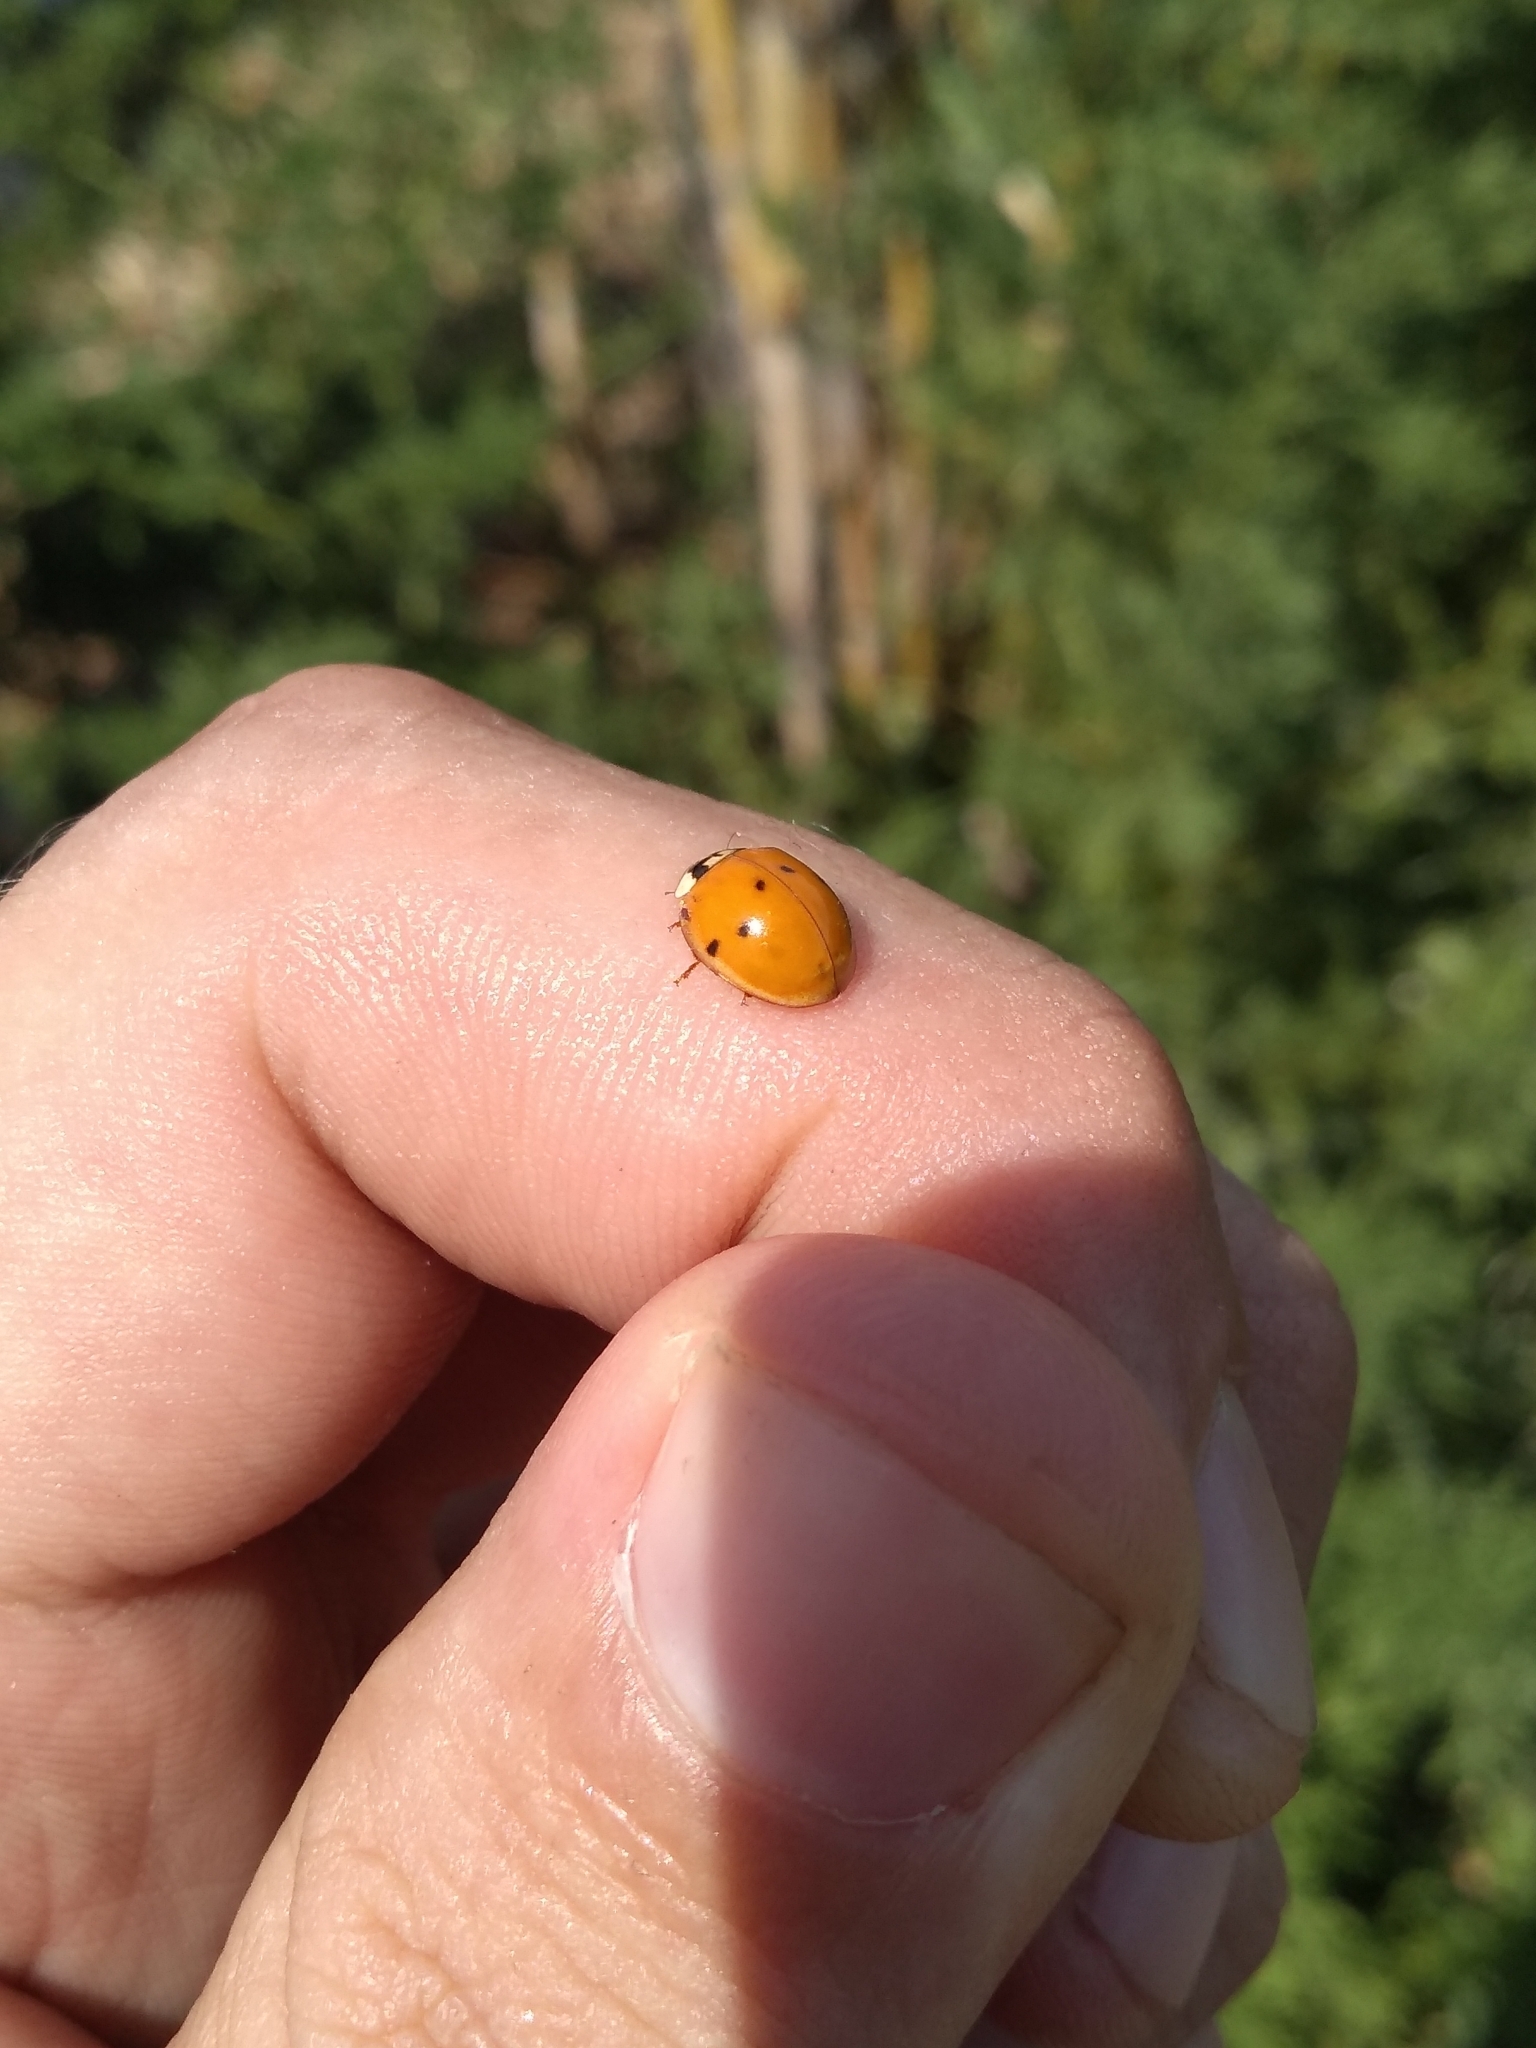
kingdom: Animalia
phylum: Arthropoda
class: Insecta
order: Coleoptera
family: Coccinellidae
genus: Harmonia
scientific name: Harmonia axyridis
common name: Harlequin ladybird
